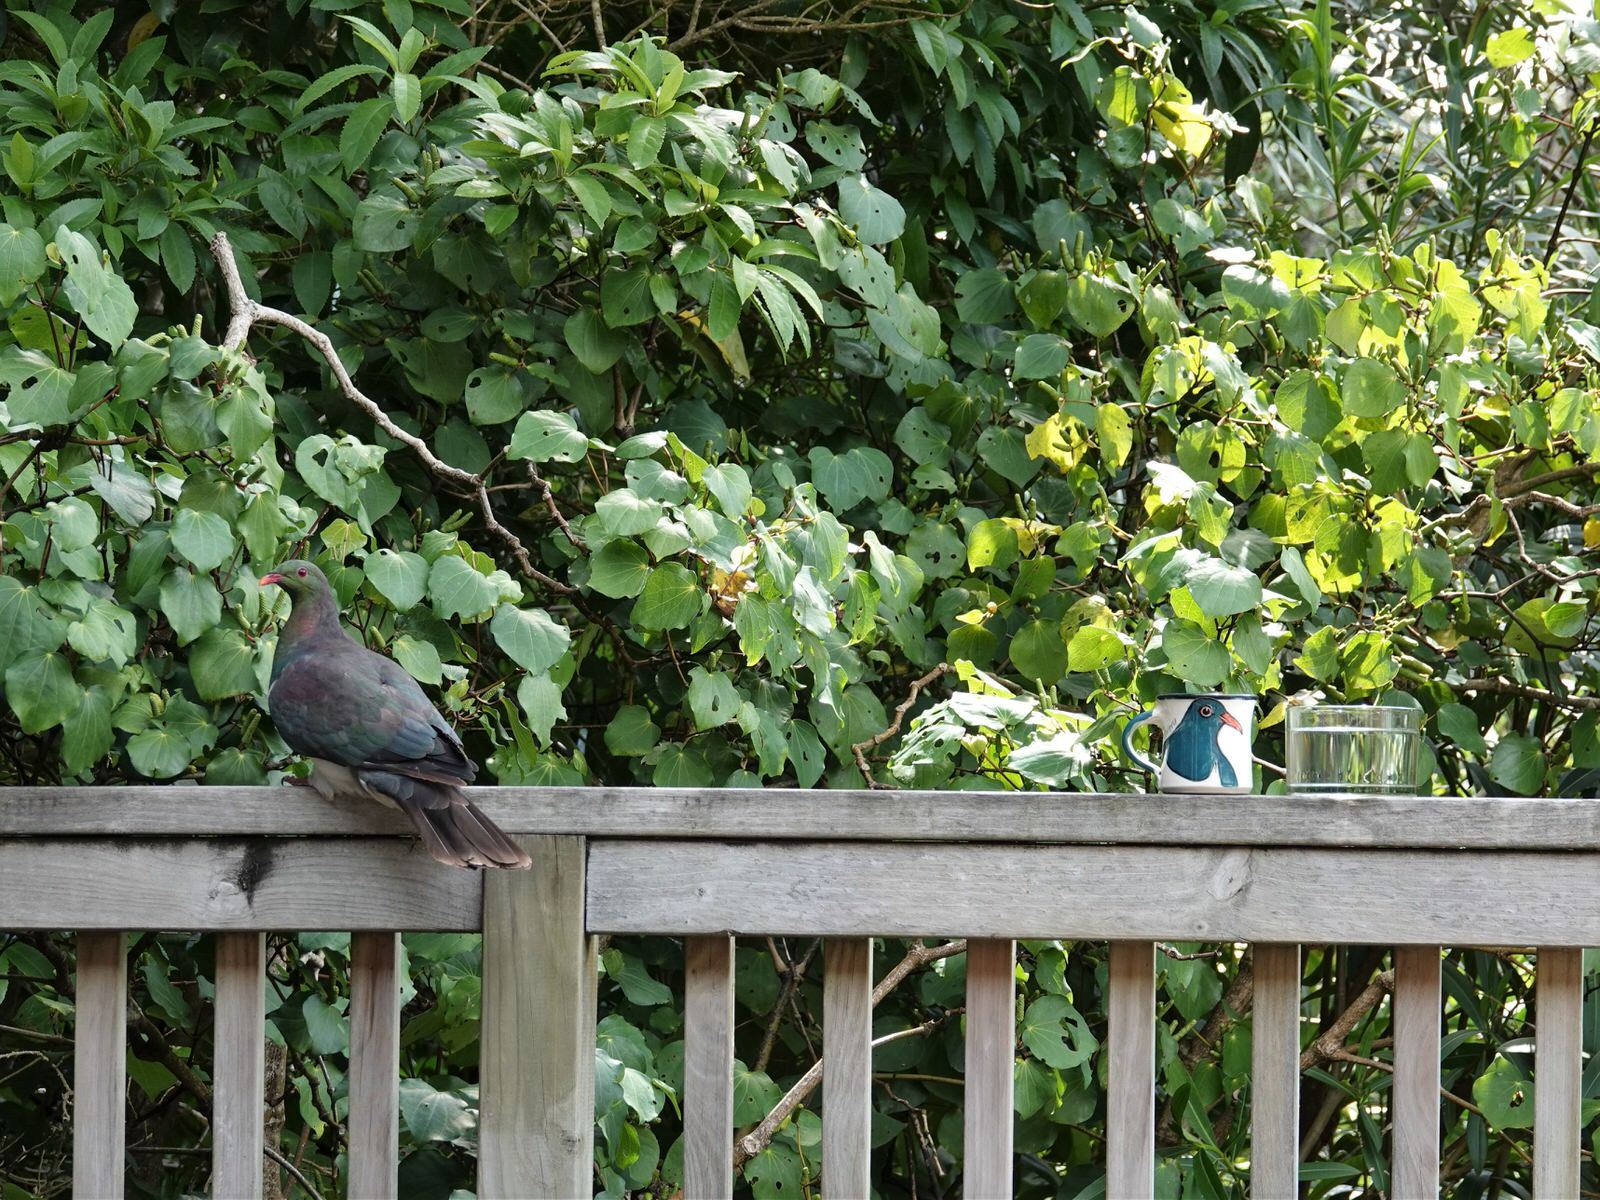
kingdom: Animalia
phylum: Chordata
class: Aves
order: Columbiformes
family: Columbidae
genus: Hemiphaga
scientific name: Hemiphaga novaeseelandiae
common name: New zealand pigeon
